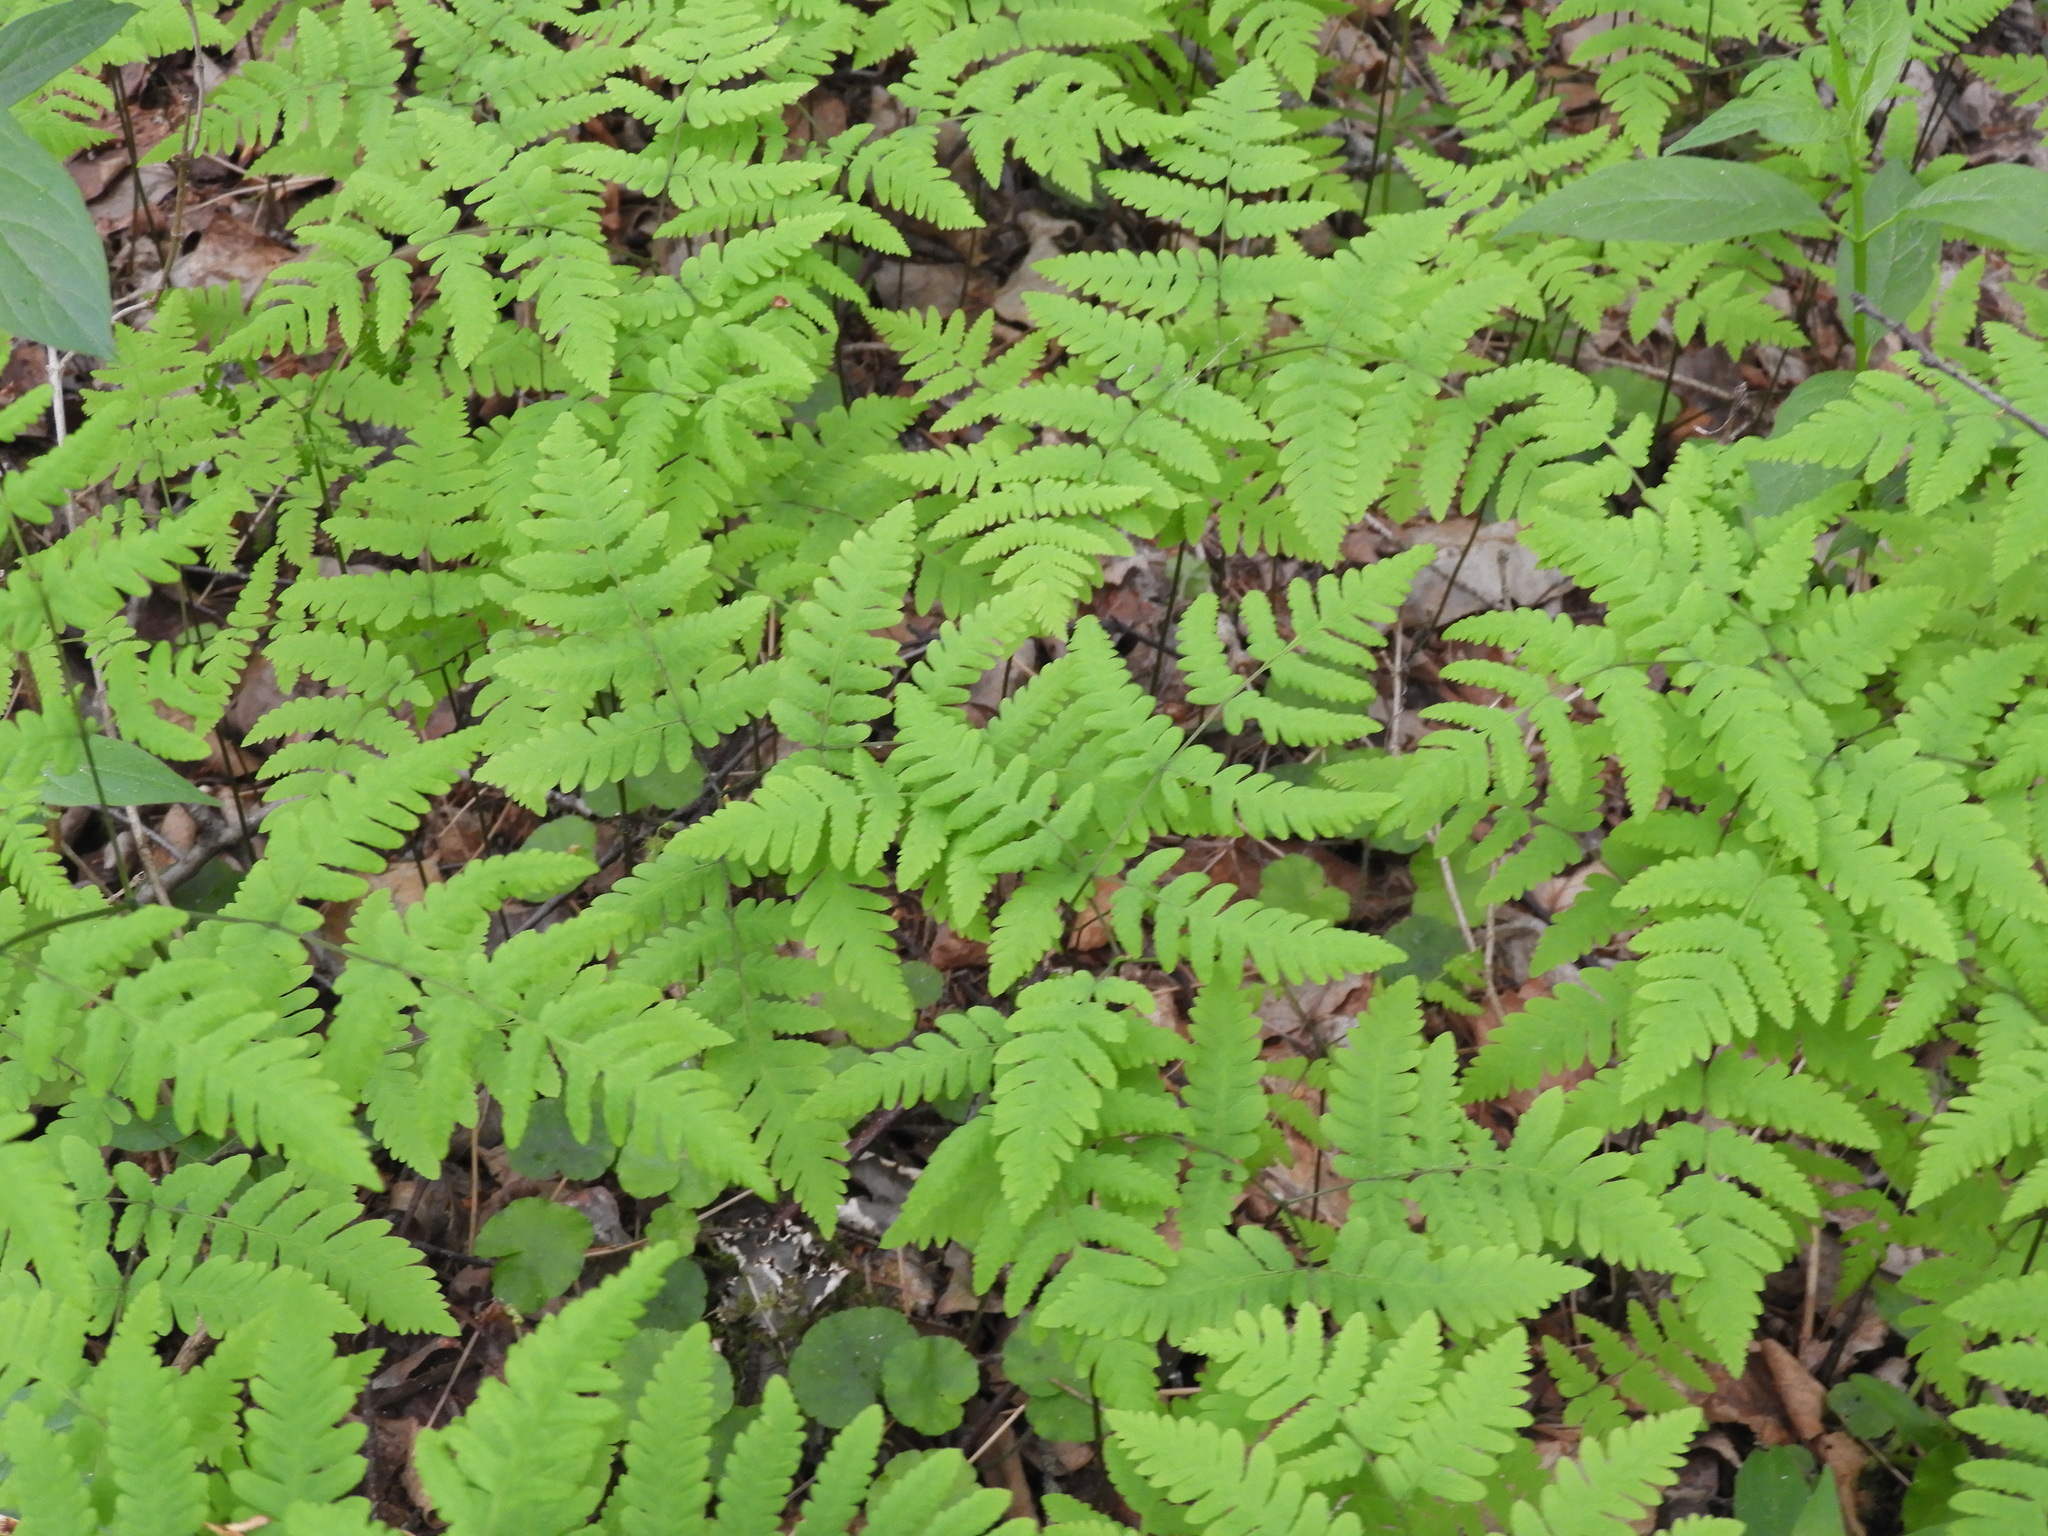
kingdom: Plantae
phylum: Tracheophyta
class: Polypodiopsida
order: Polypodiales
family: Cystopteridaceae
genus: Gymnocarpium
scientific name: Gymnocarpium dryopteris
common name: Oak fern
